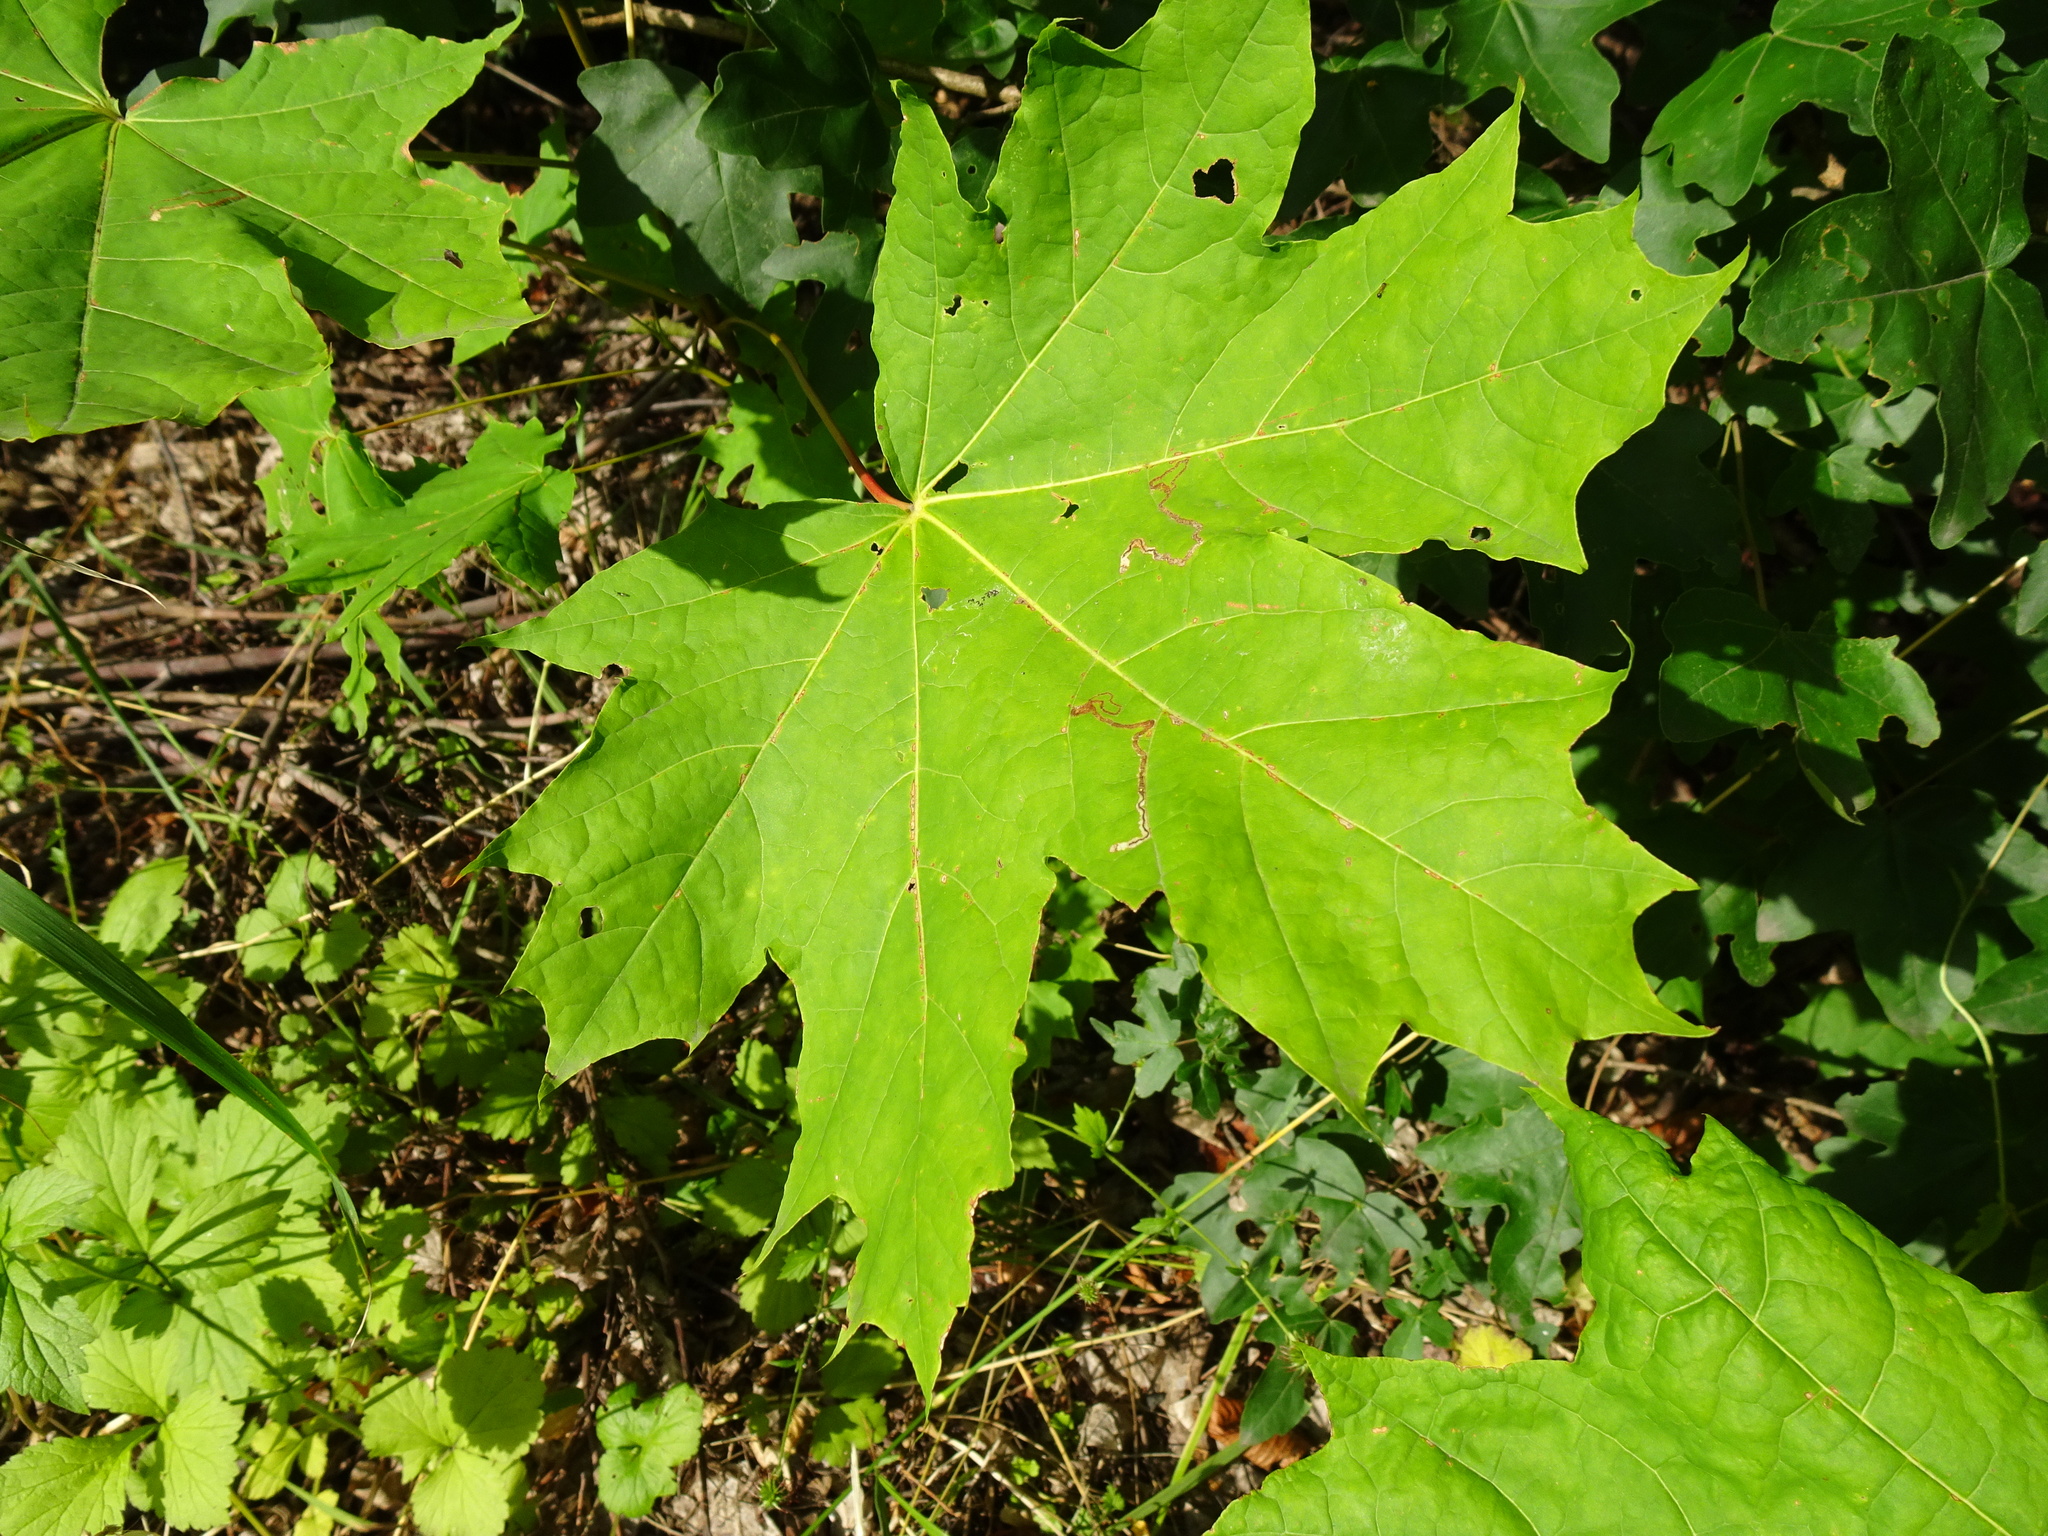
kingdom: Plantae
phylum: Tracheophyta
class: Magnoliopsida
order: Sapindales
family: Sapindaceae
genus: Acer
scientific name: Acer platanoides
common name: Norway maple
